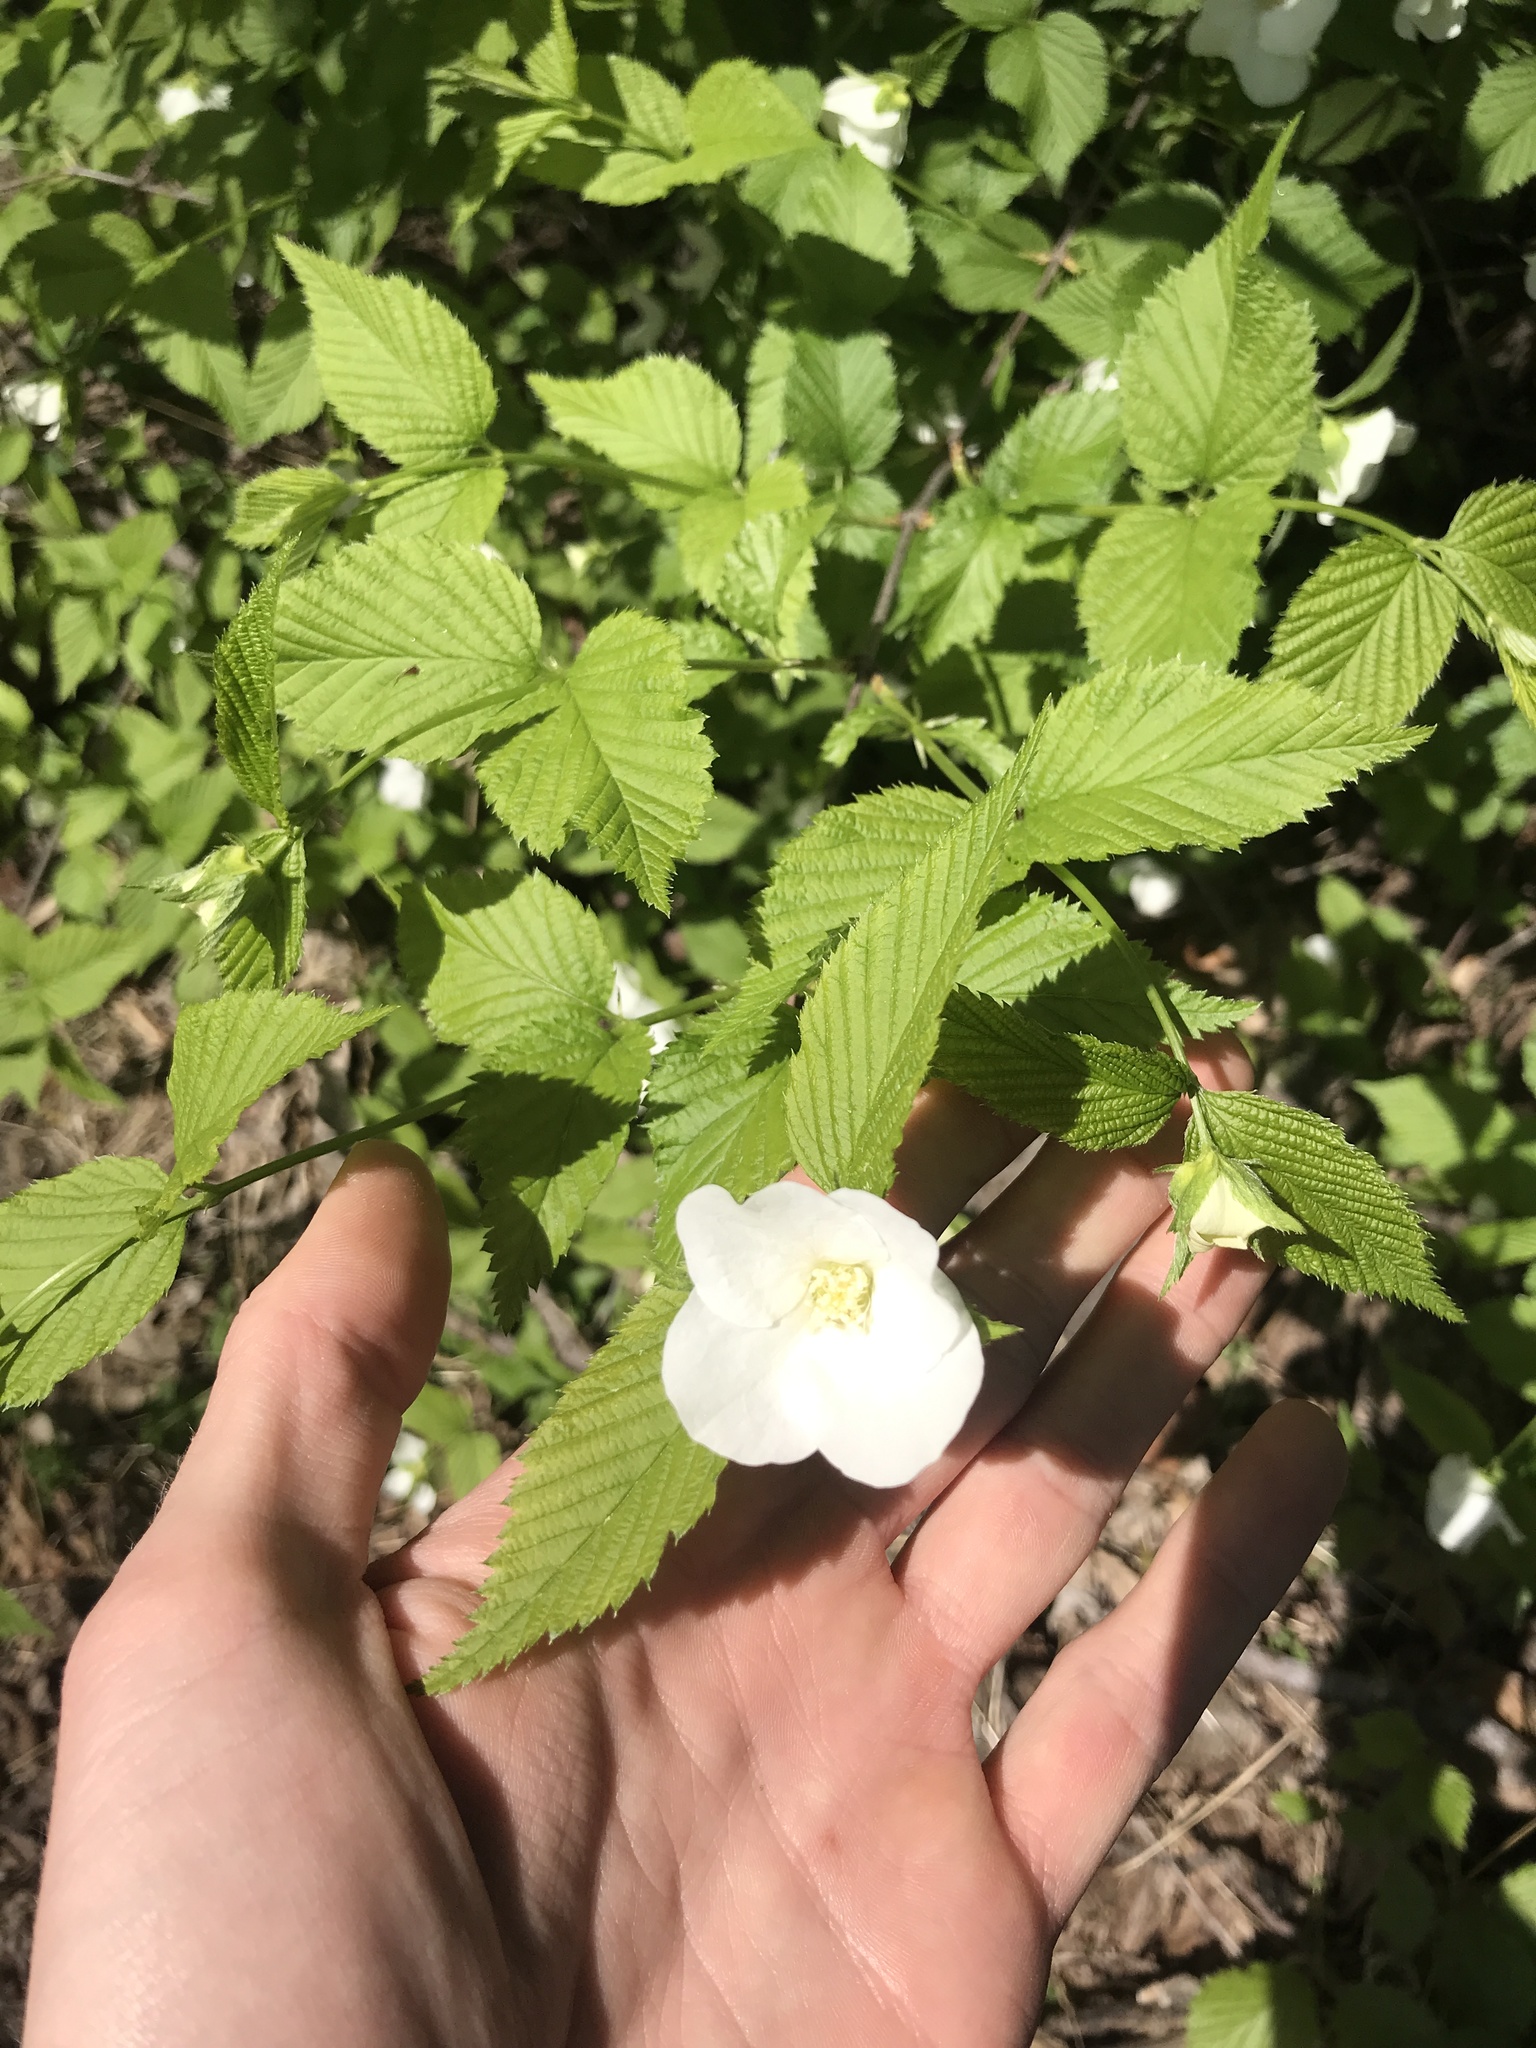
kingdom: Plantae
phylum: Tracheophyta
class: Magnoliopsida
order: Rosales
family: Rosaceae
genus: Rhodotypos
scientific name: Rhodotypos scandens
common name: Jetbead
